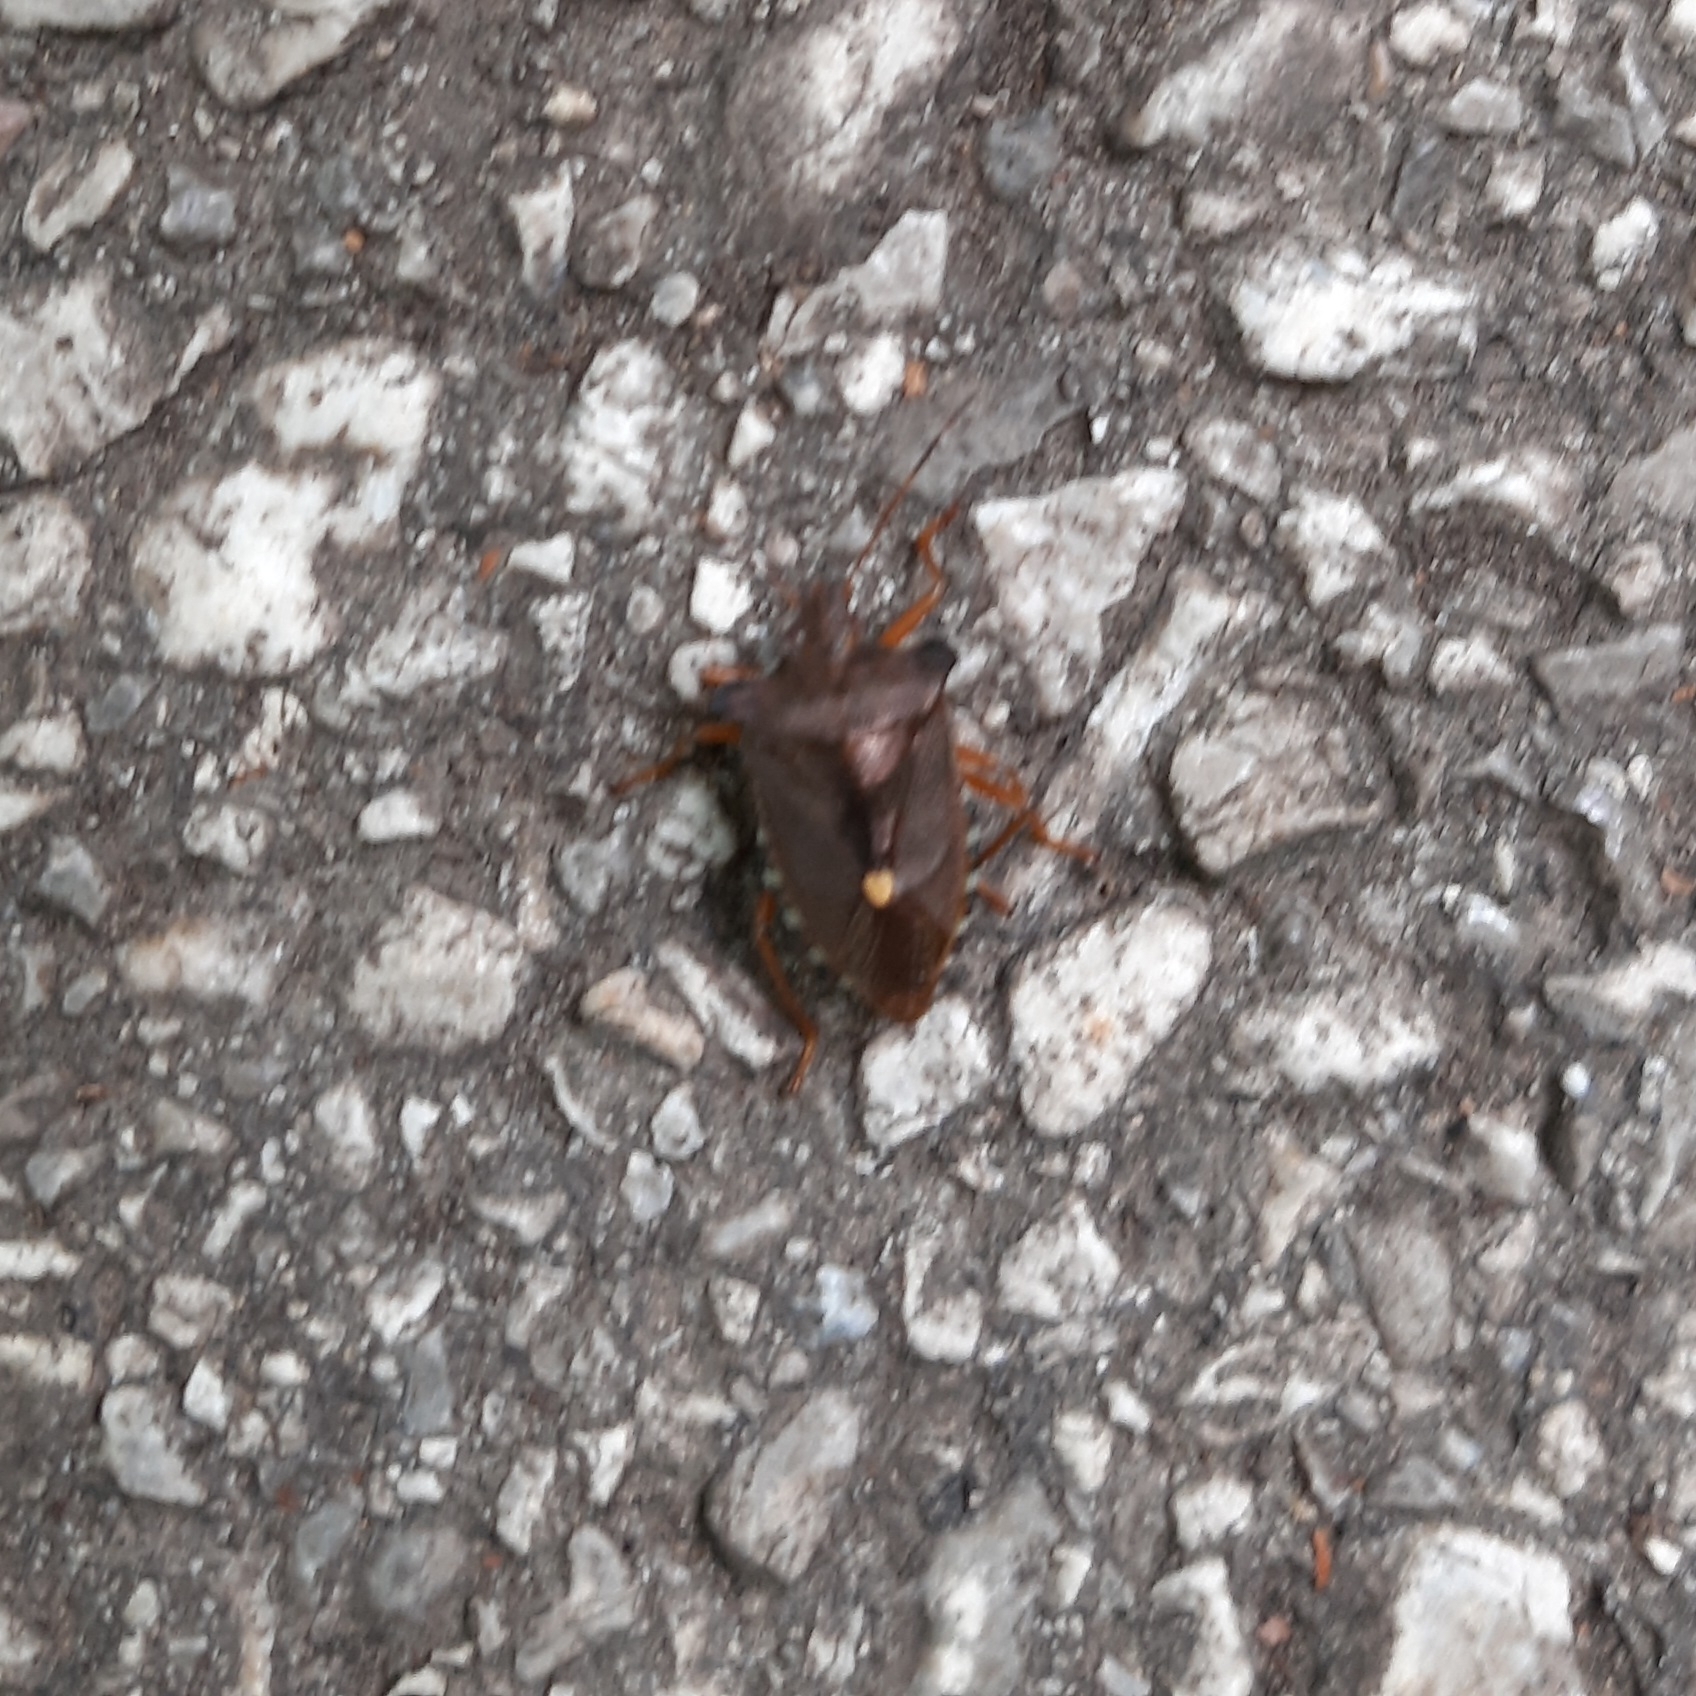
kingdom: Animalia
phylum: Arthropoda
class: Insecta
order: Hemiptera
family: Pentatomidae
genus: Pentatoma
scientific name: Pentatoma rufipes
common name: Forest bug
